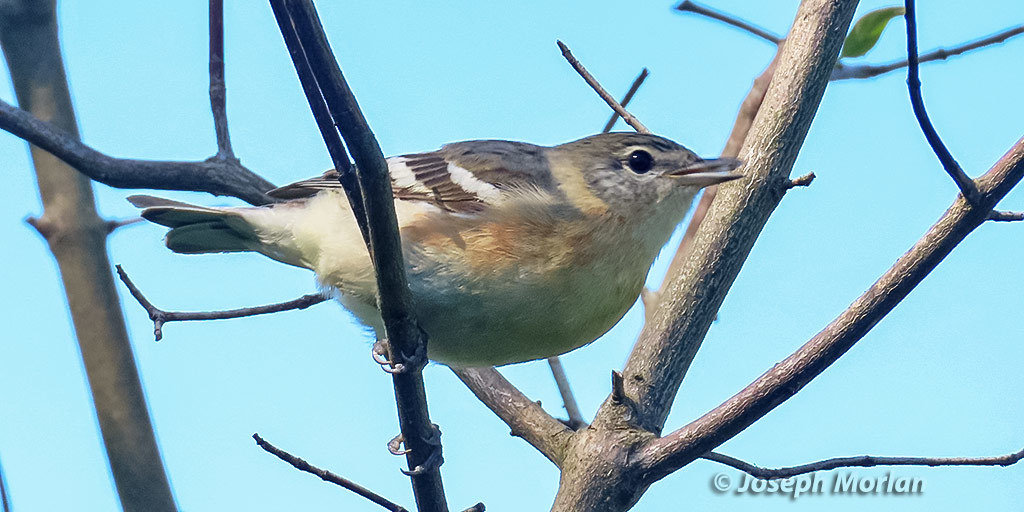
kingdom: Animalia
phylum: Chordata
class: Aves
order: Passeriformes
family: Parulidae
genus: Setophaga
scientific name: Setophaga castanea
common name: Bay-breasted warbler
